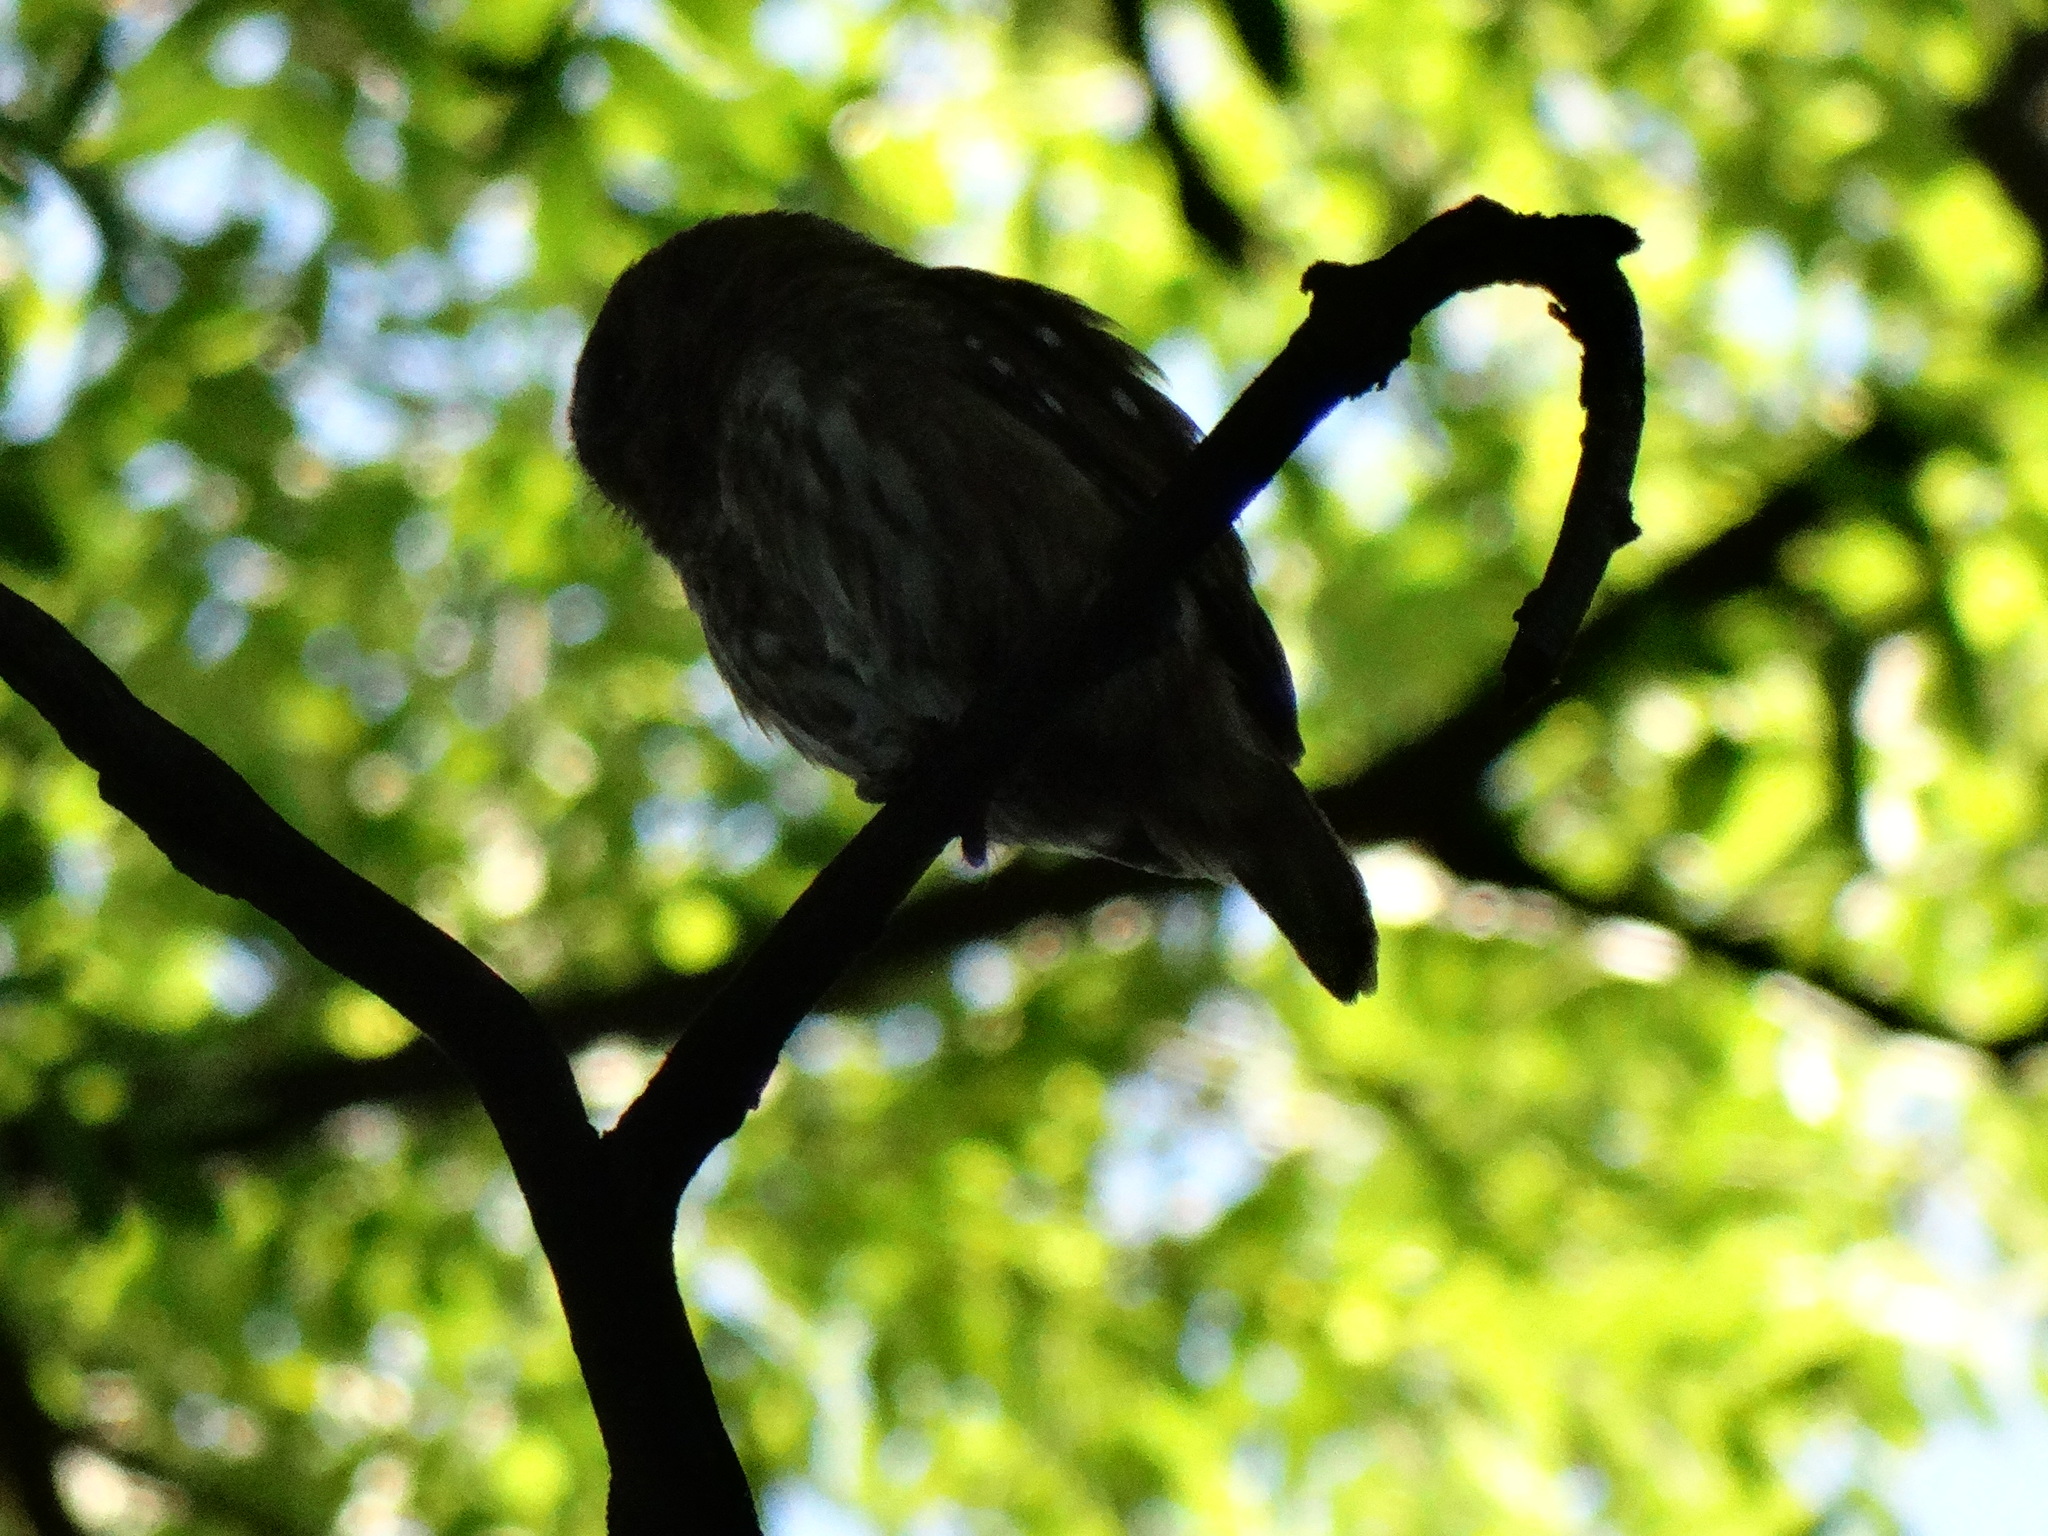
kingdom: Animalia
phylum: Chordata
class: Aves
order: Strigiformes
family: Strigidae
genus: Glaucidium
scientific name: Glaucidium brasilianum
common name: Ferruginous pygmy-owl
